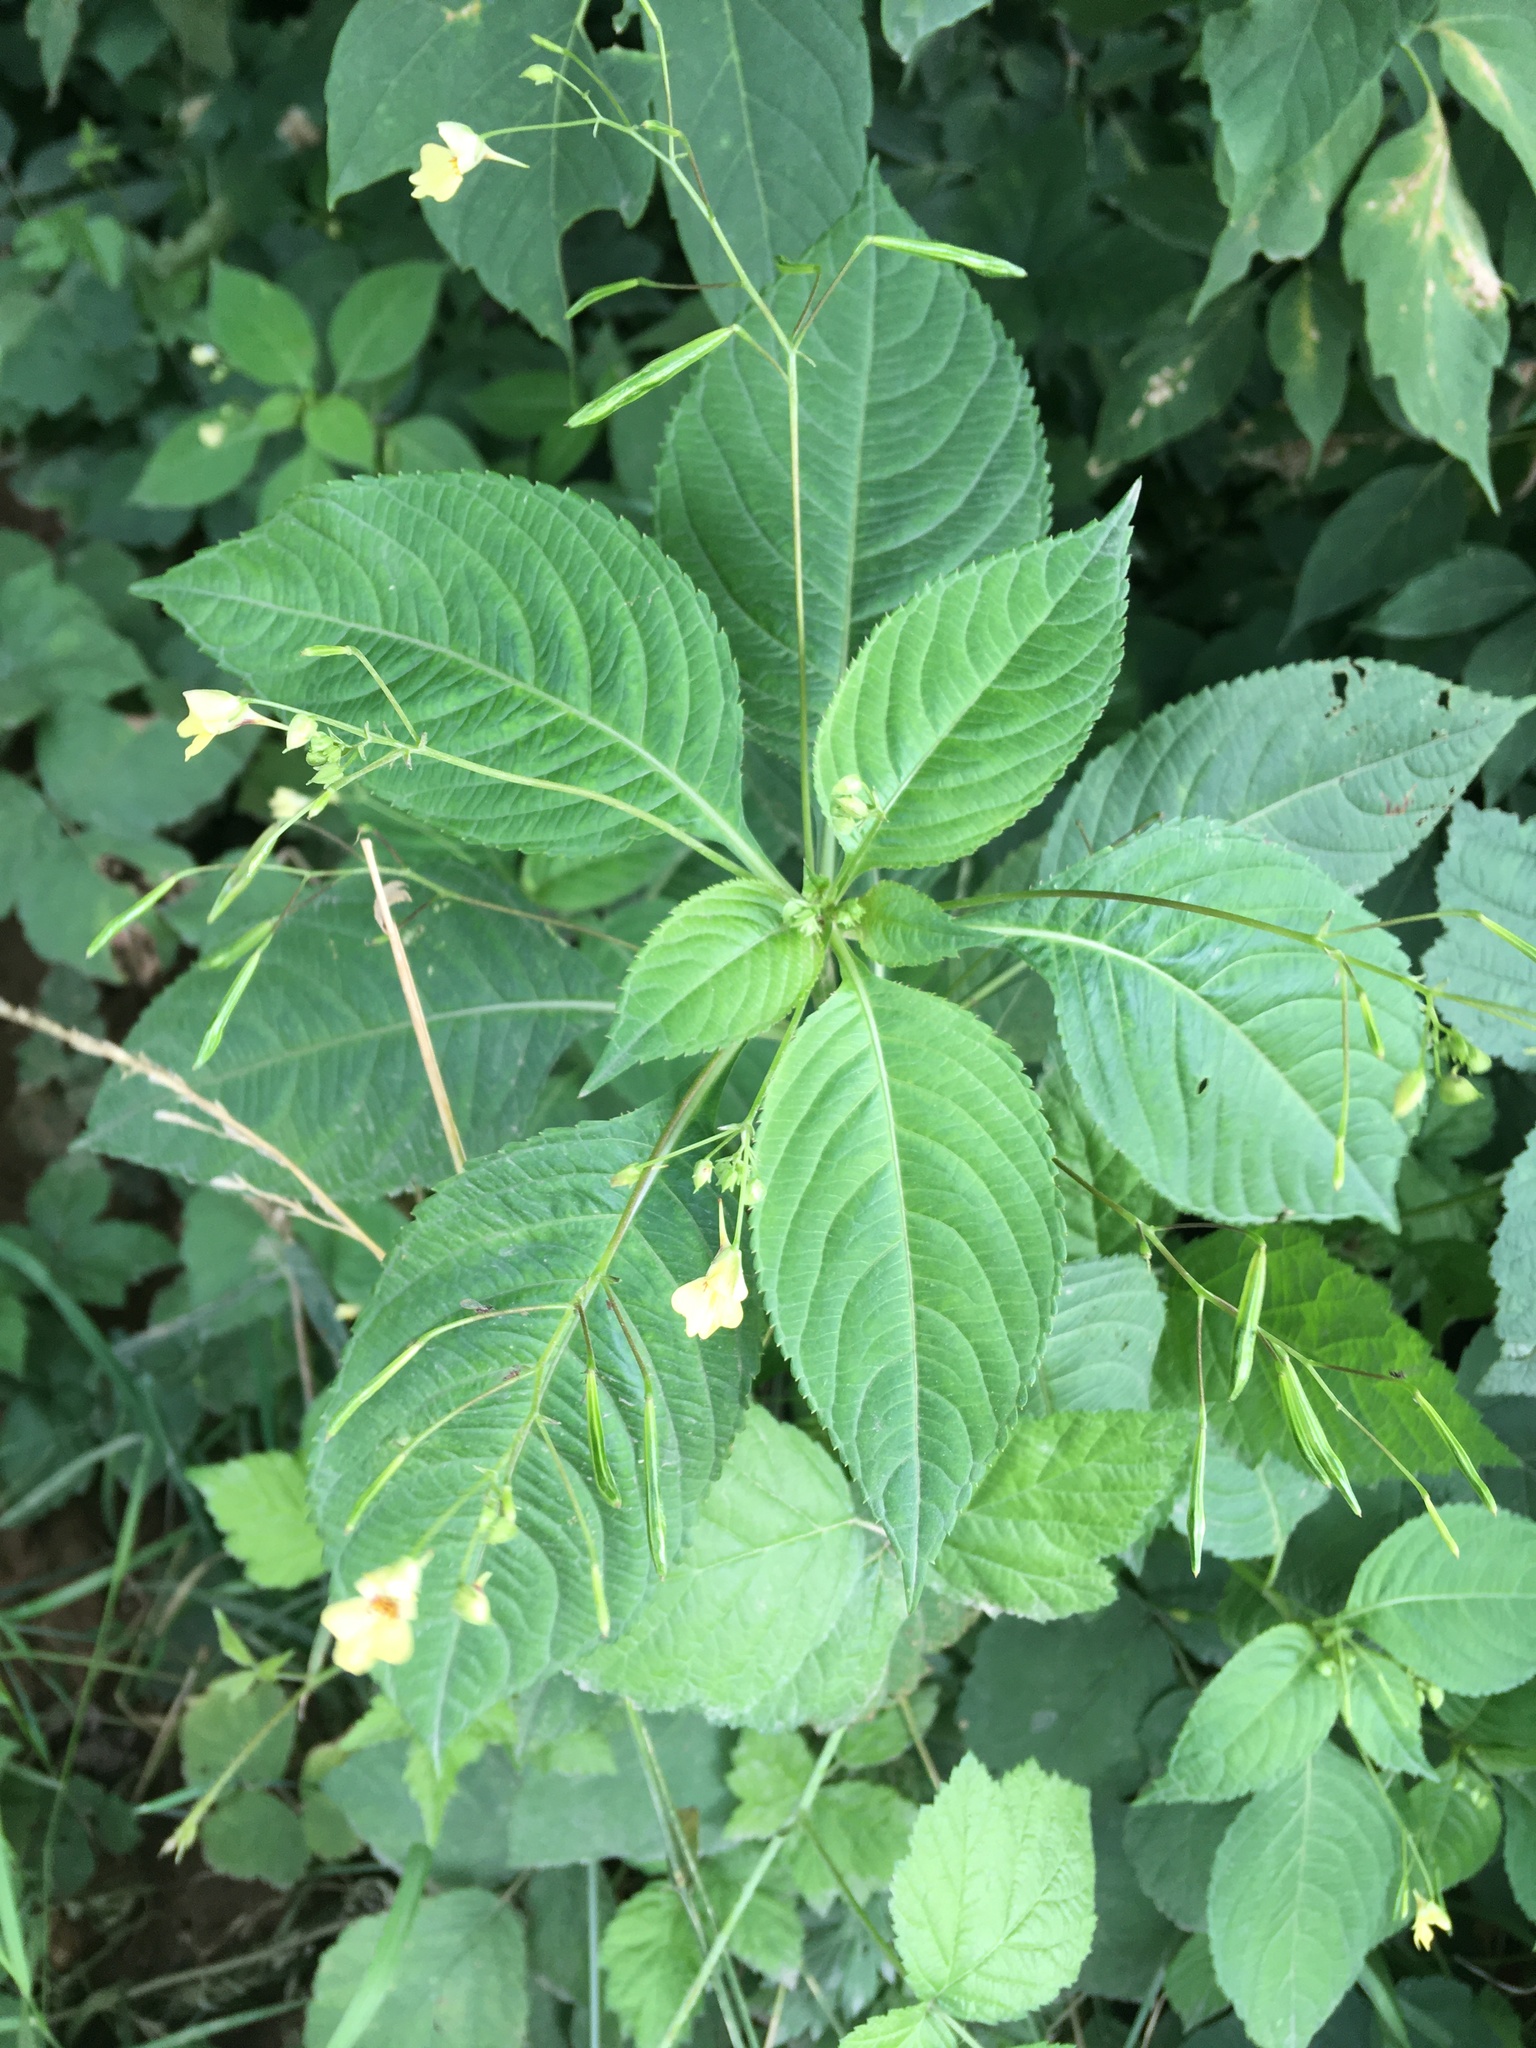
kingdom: Plantae
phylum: Tracheophyta
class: Magnoliopsida
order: Ericales
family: Balsaminaceae
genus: Impatiens
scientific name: Impatiens parviflora
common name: Small balsam
